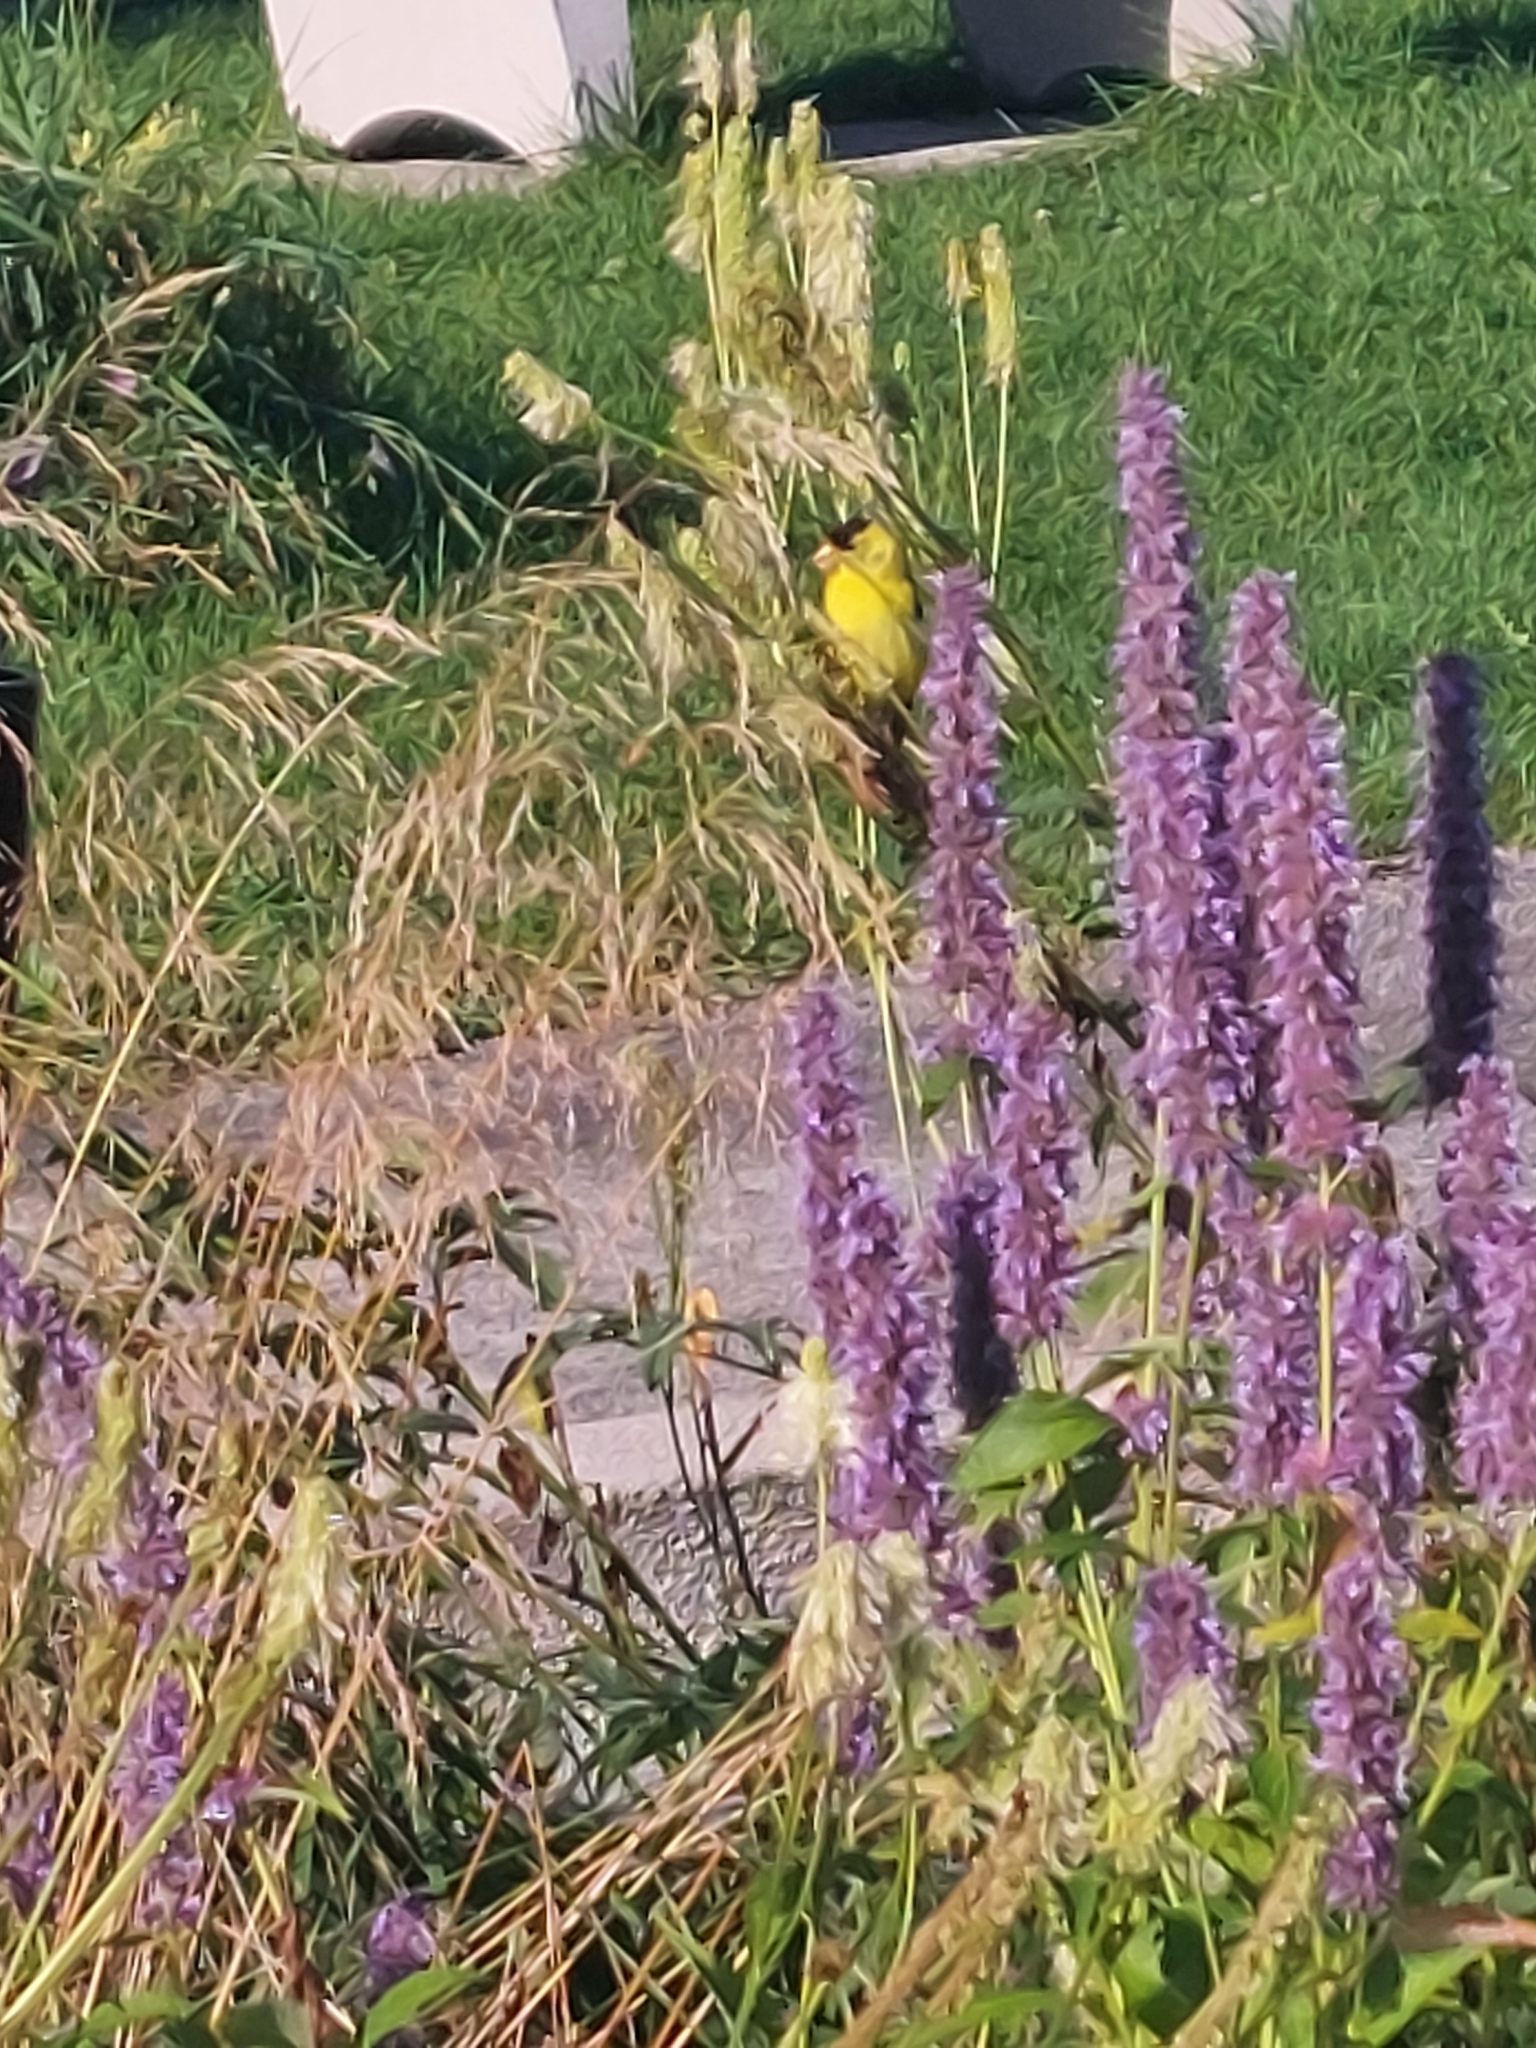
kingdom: Animalia
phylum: Chordata
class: Aves
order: Passeriformes
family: Fringillidae
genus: Spinus
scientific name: Spinus tristis
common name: American goldfinch
